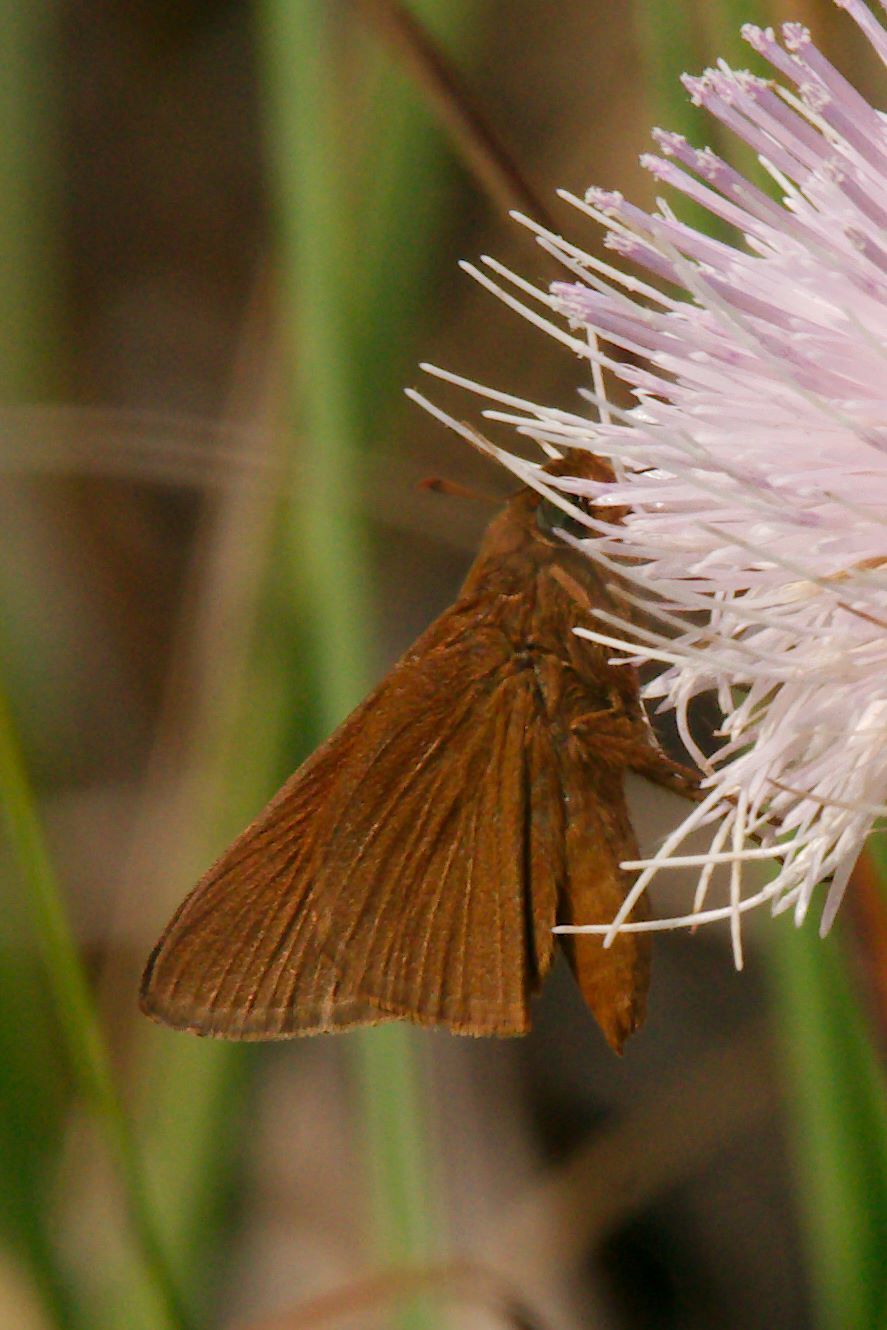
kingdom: Animalia
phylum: Arthropoda
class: Insecta
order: Lepidoptera
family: Hesperiidae
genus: Euphyes
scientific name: Euphyes pilatka
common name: Palatka skipper
